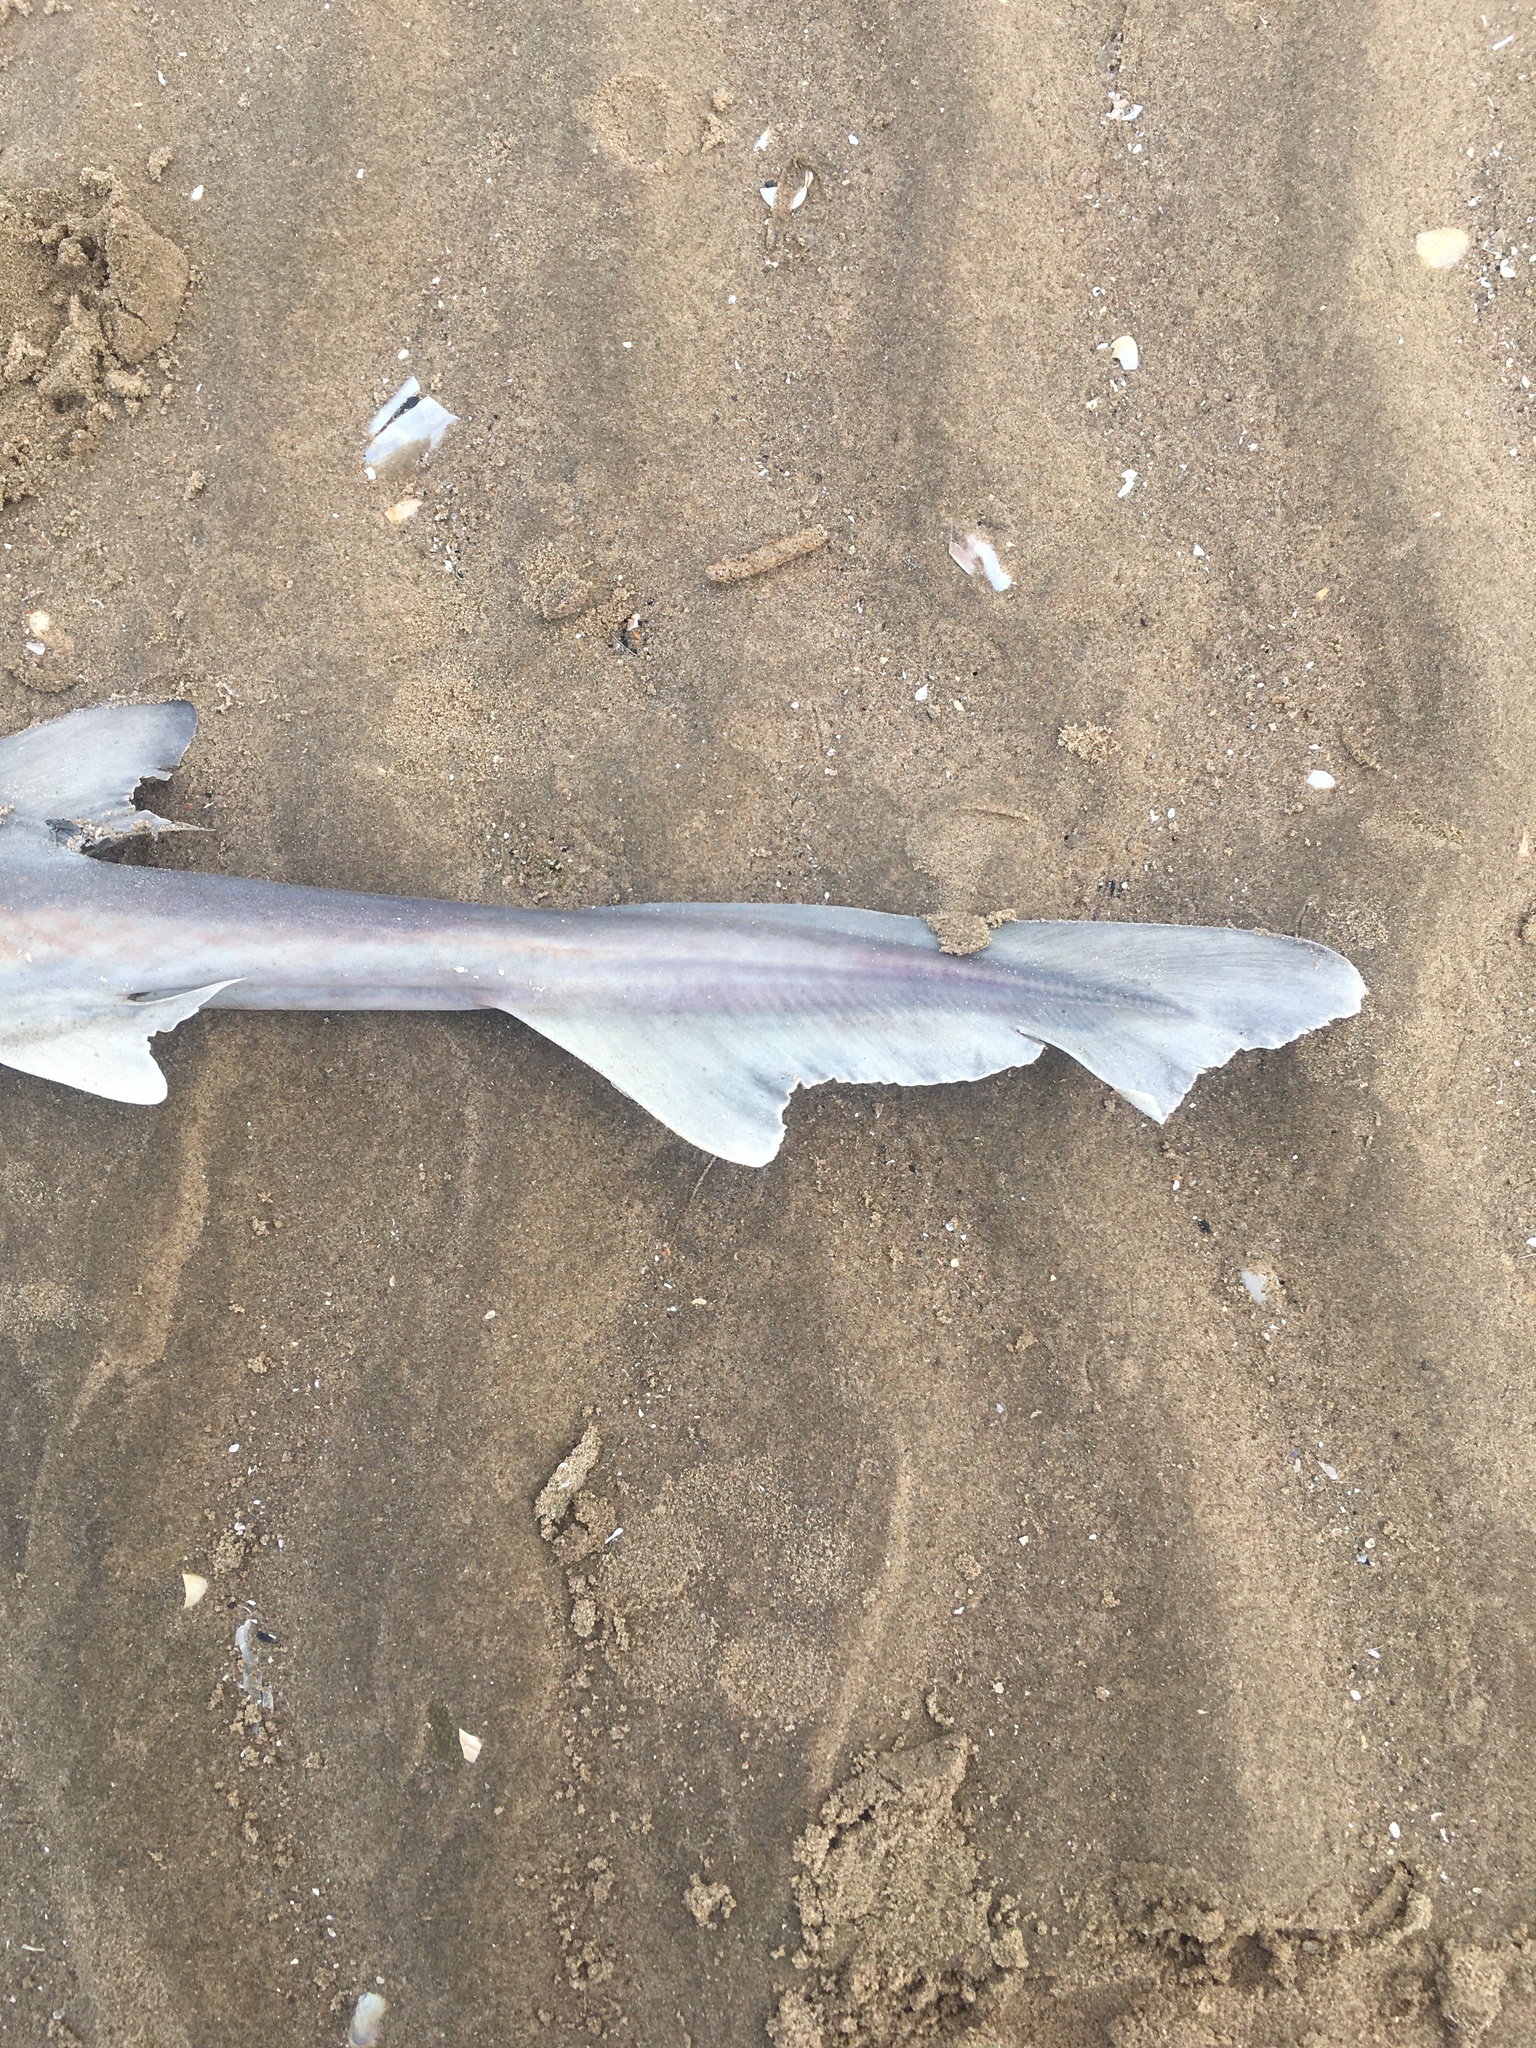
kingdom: Animalia
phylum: Chordata
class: Elasmobranchii
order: Carcharhiniformes
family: Triakidae
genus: Mustelus
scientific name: Mustelus mustelus
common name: Smooth-hound
